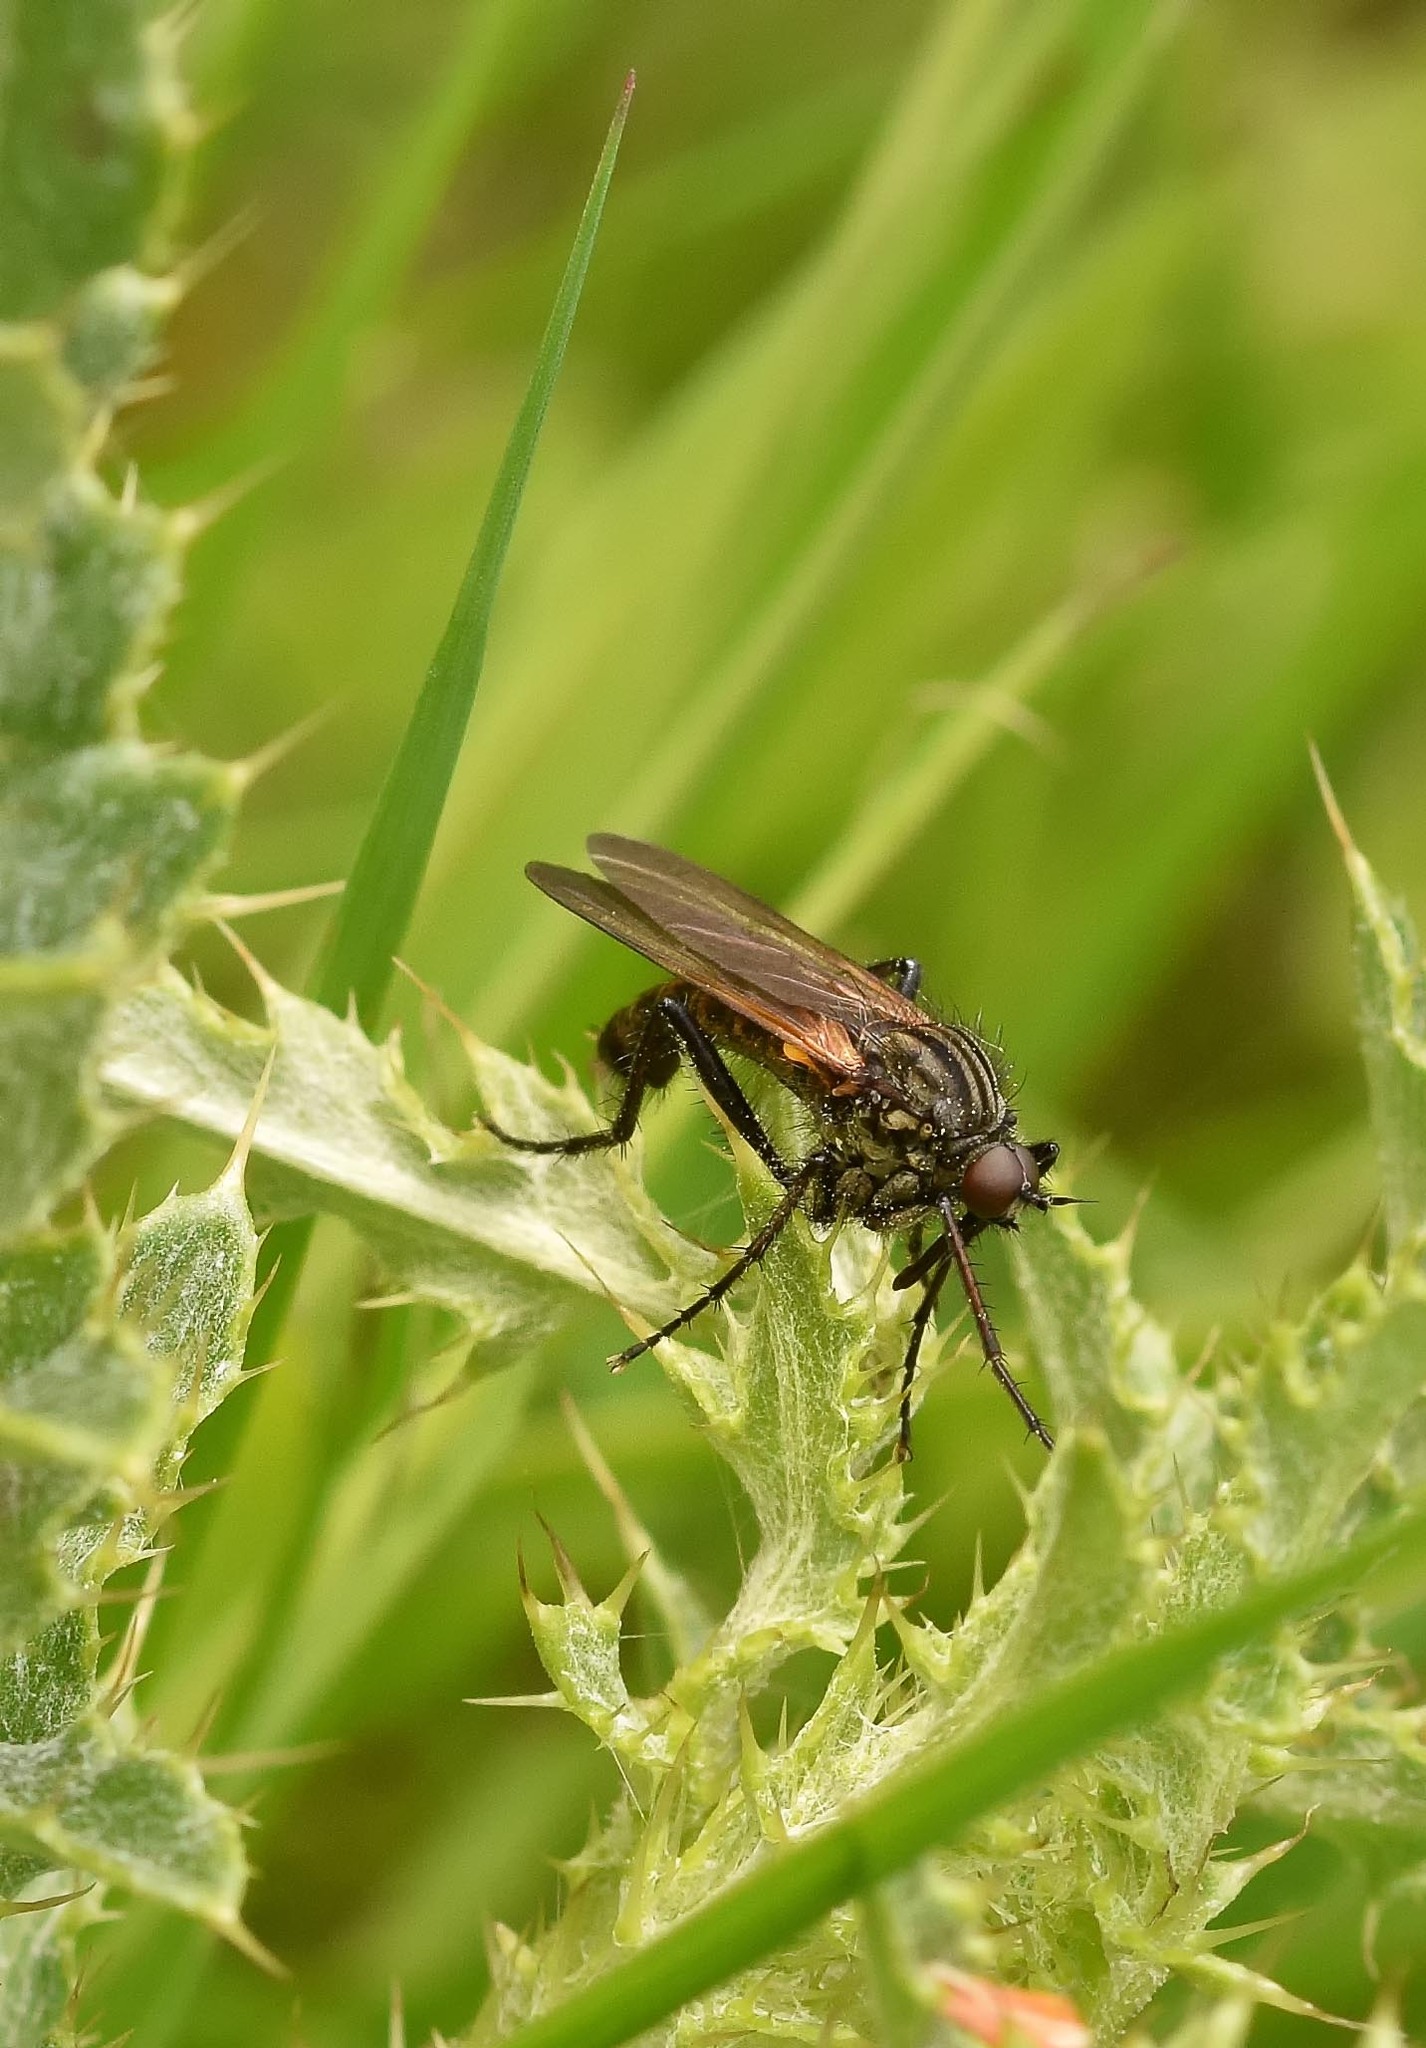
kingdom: Animalia
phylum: Arthropoda
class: Insecta
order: Diptera
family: Empididae
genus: Empis
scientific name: Empis tessellata
